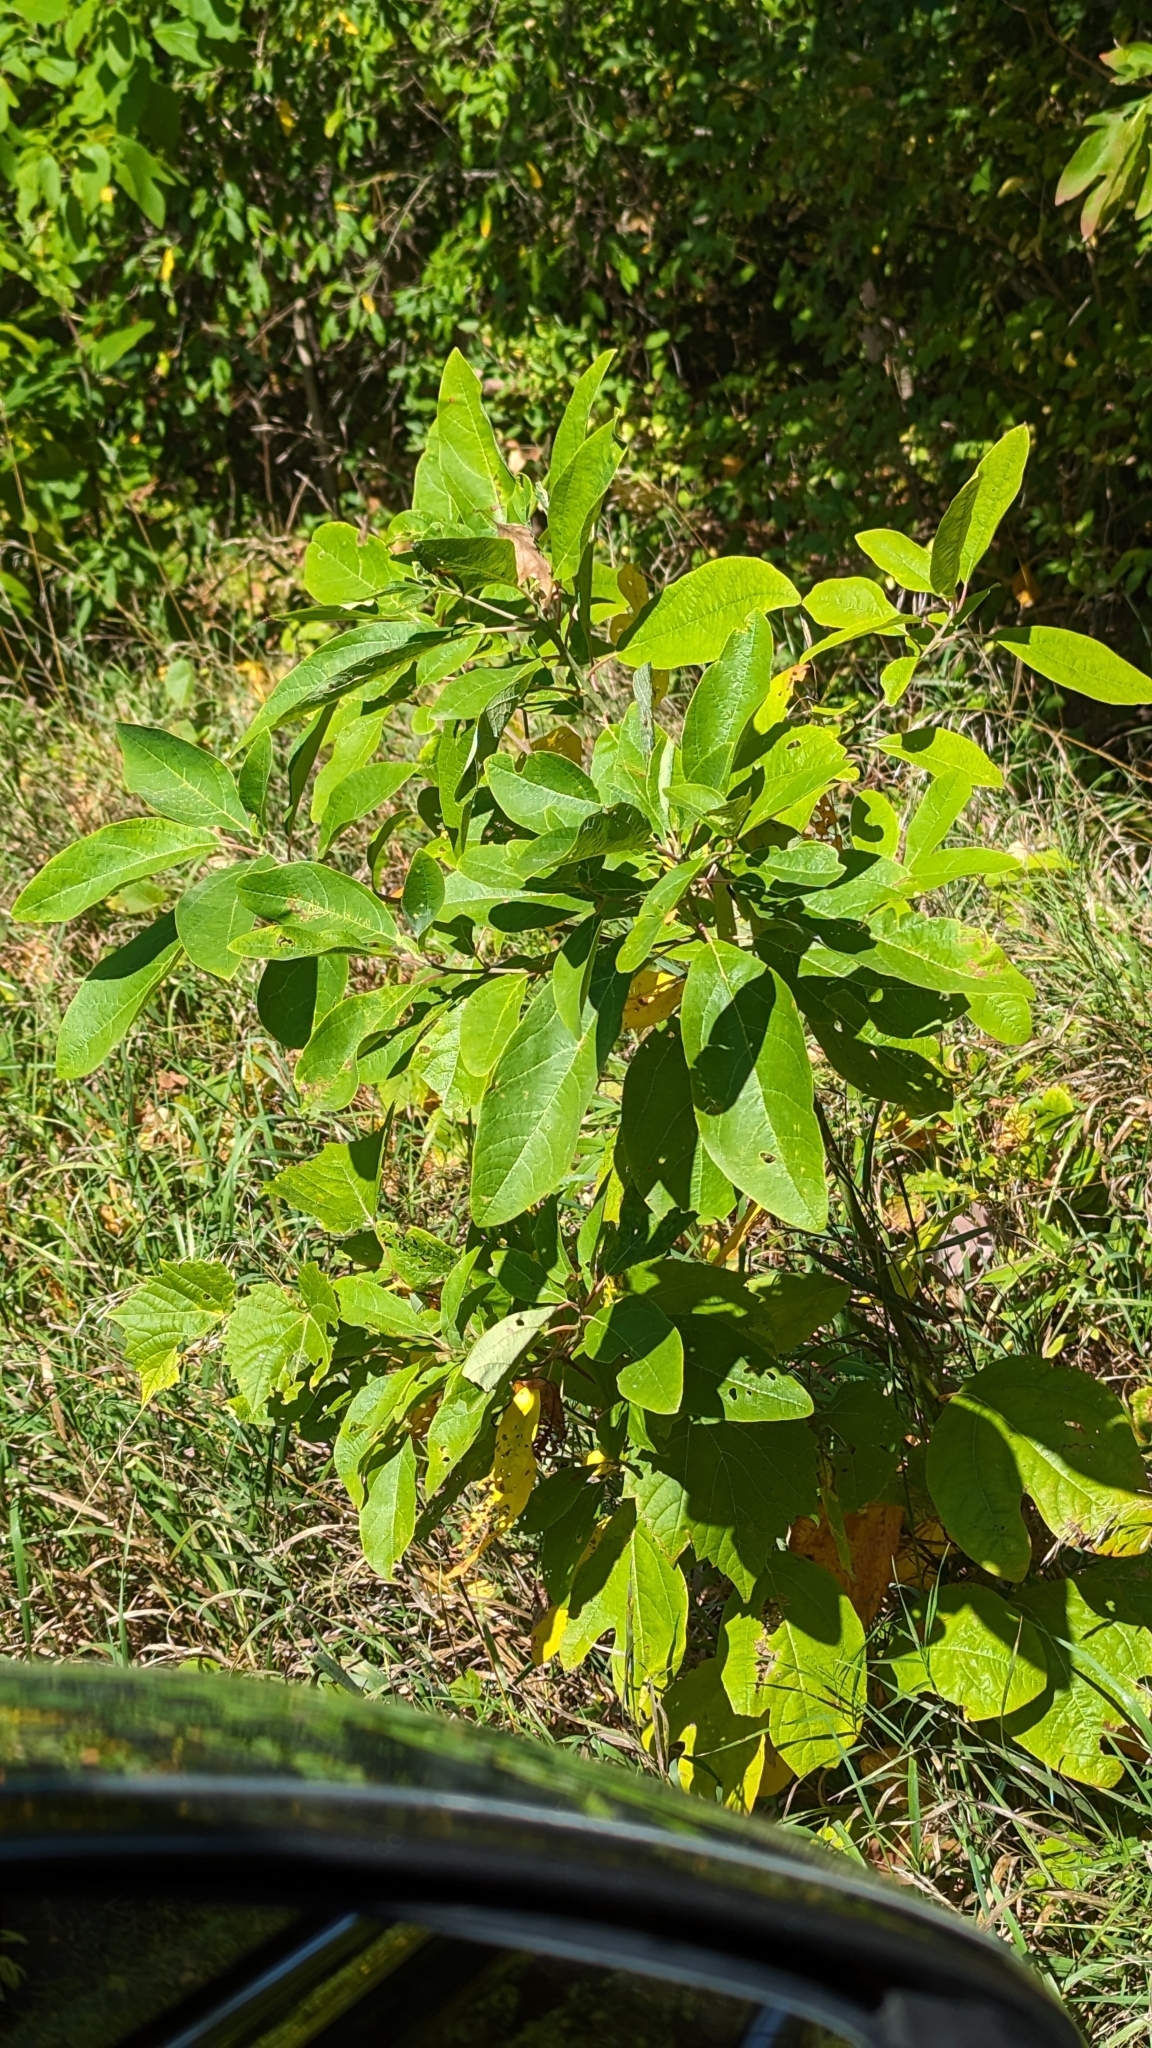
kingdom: Plantae
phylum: Tracheophyta
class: Magnoliopsida
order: Laurales
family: Lauraceae
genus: Sassafras
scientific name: Sassafras albidum
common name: Sassafras
